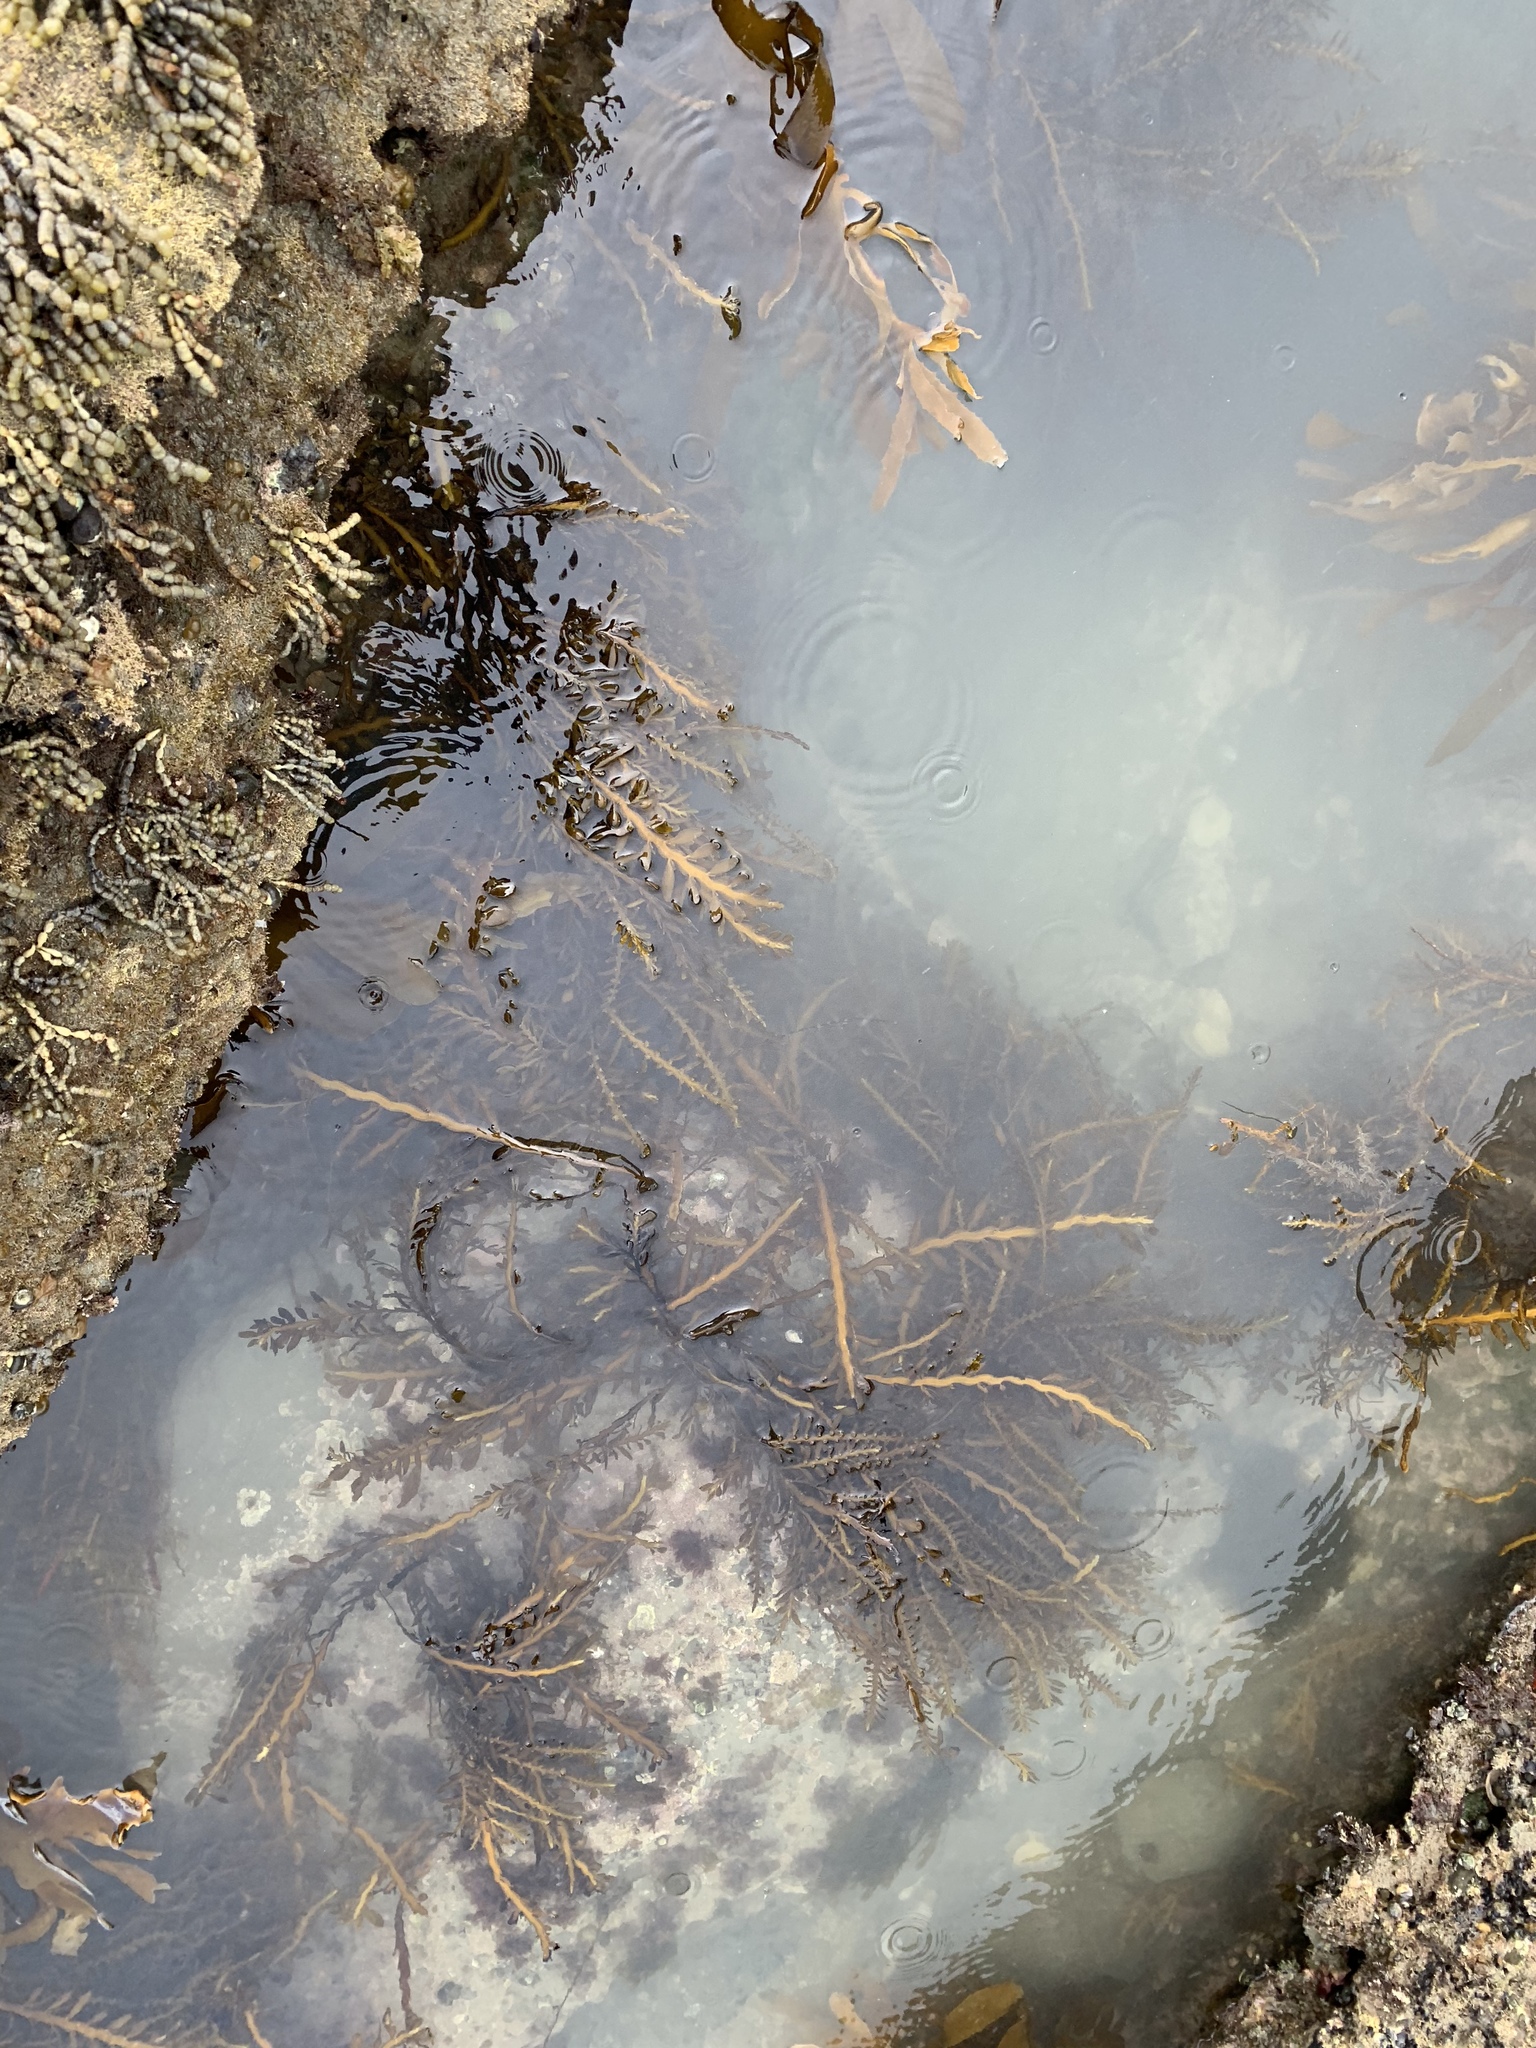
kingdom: Chromista
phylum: Ochrophyta
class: Phaeophyceae
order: Fucales
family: Sargassaceae
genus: Carpophyllum
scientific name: Carpophyllum maschalocarpum
